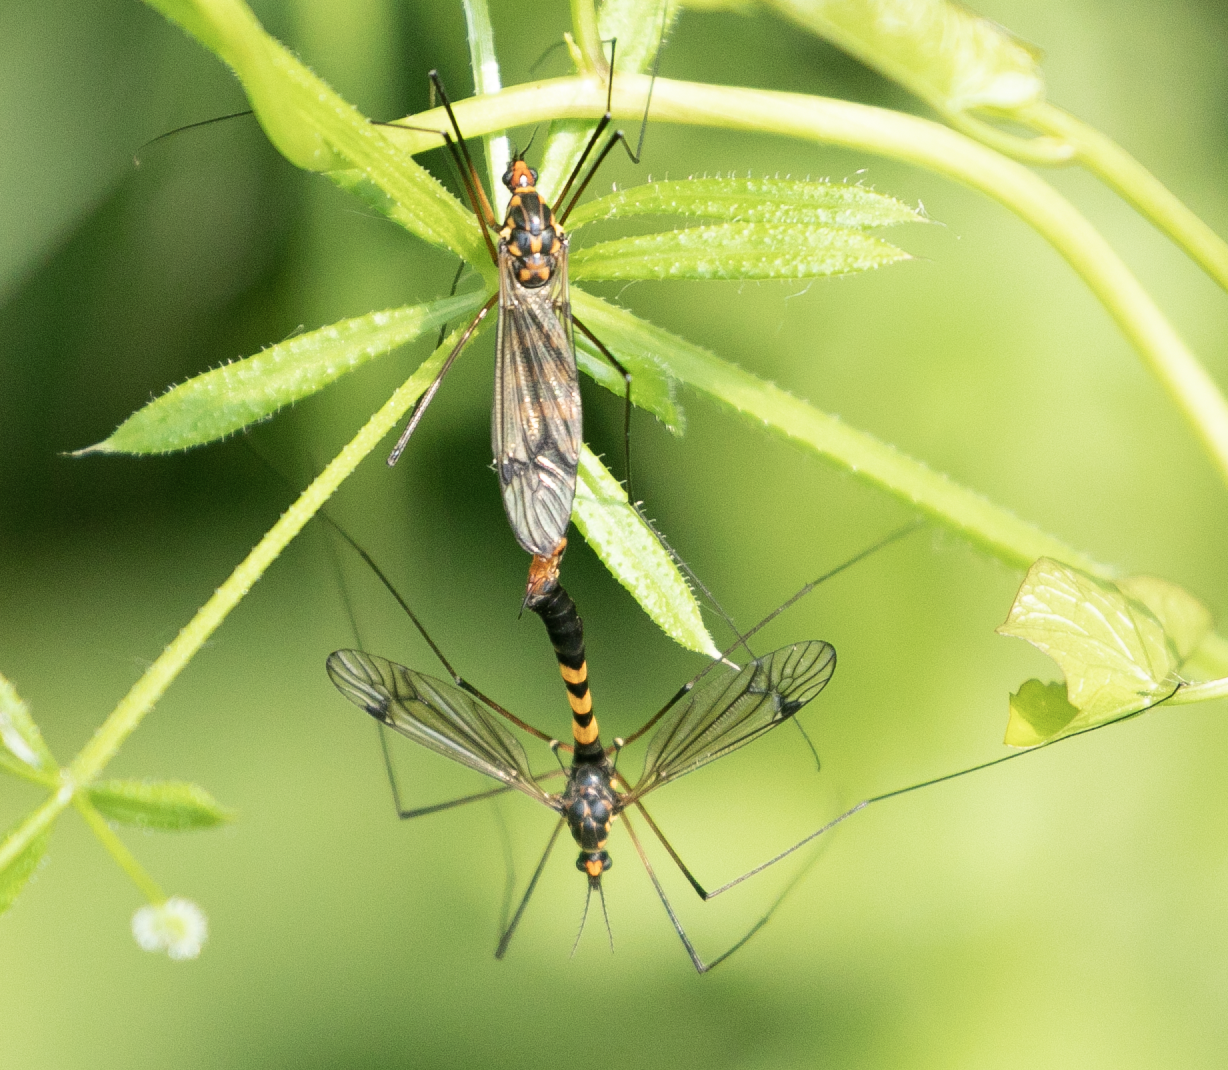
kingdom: Animalia
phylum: Arthropoda
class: Insecta
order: Diptera
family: Tipulidae
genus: Nephrotoma
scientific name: Nephrotoma crocata
